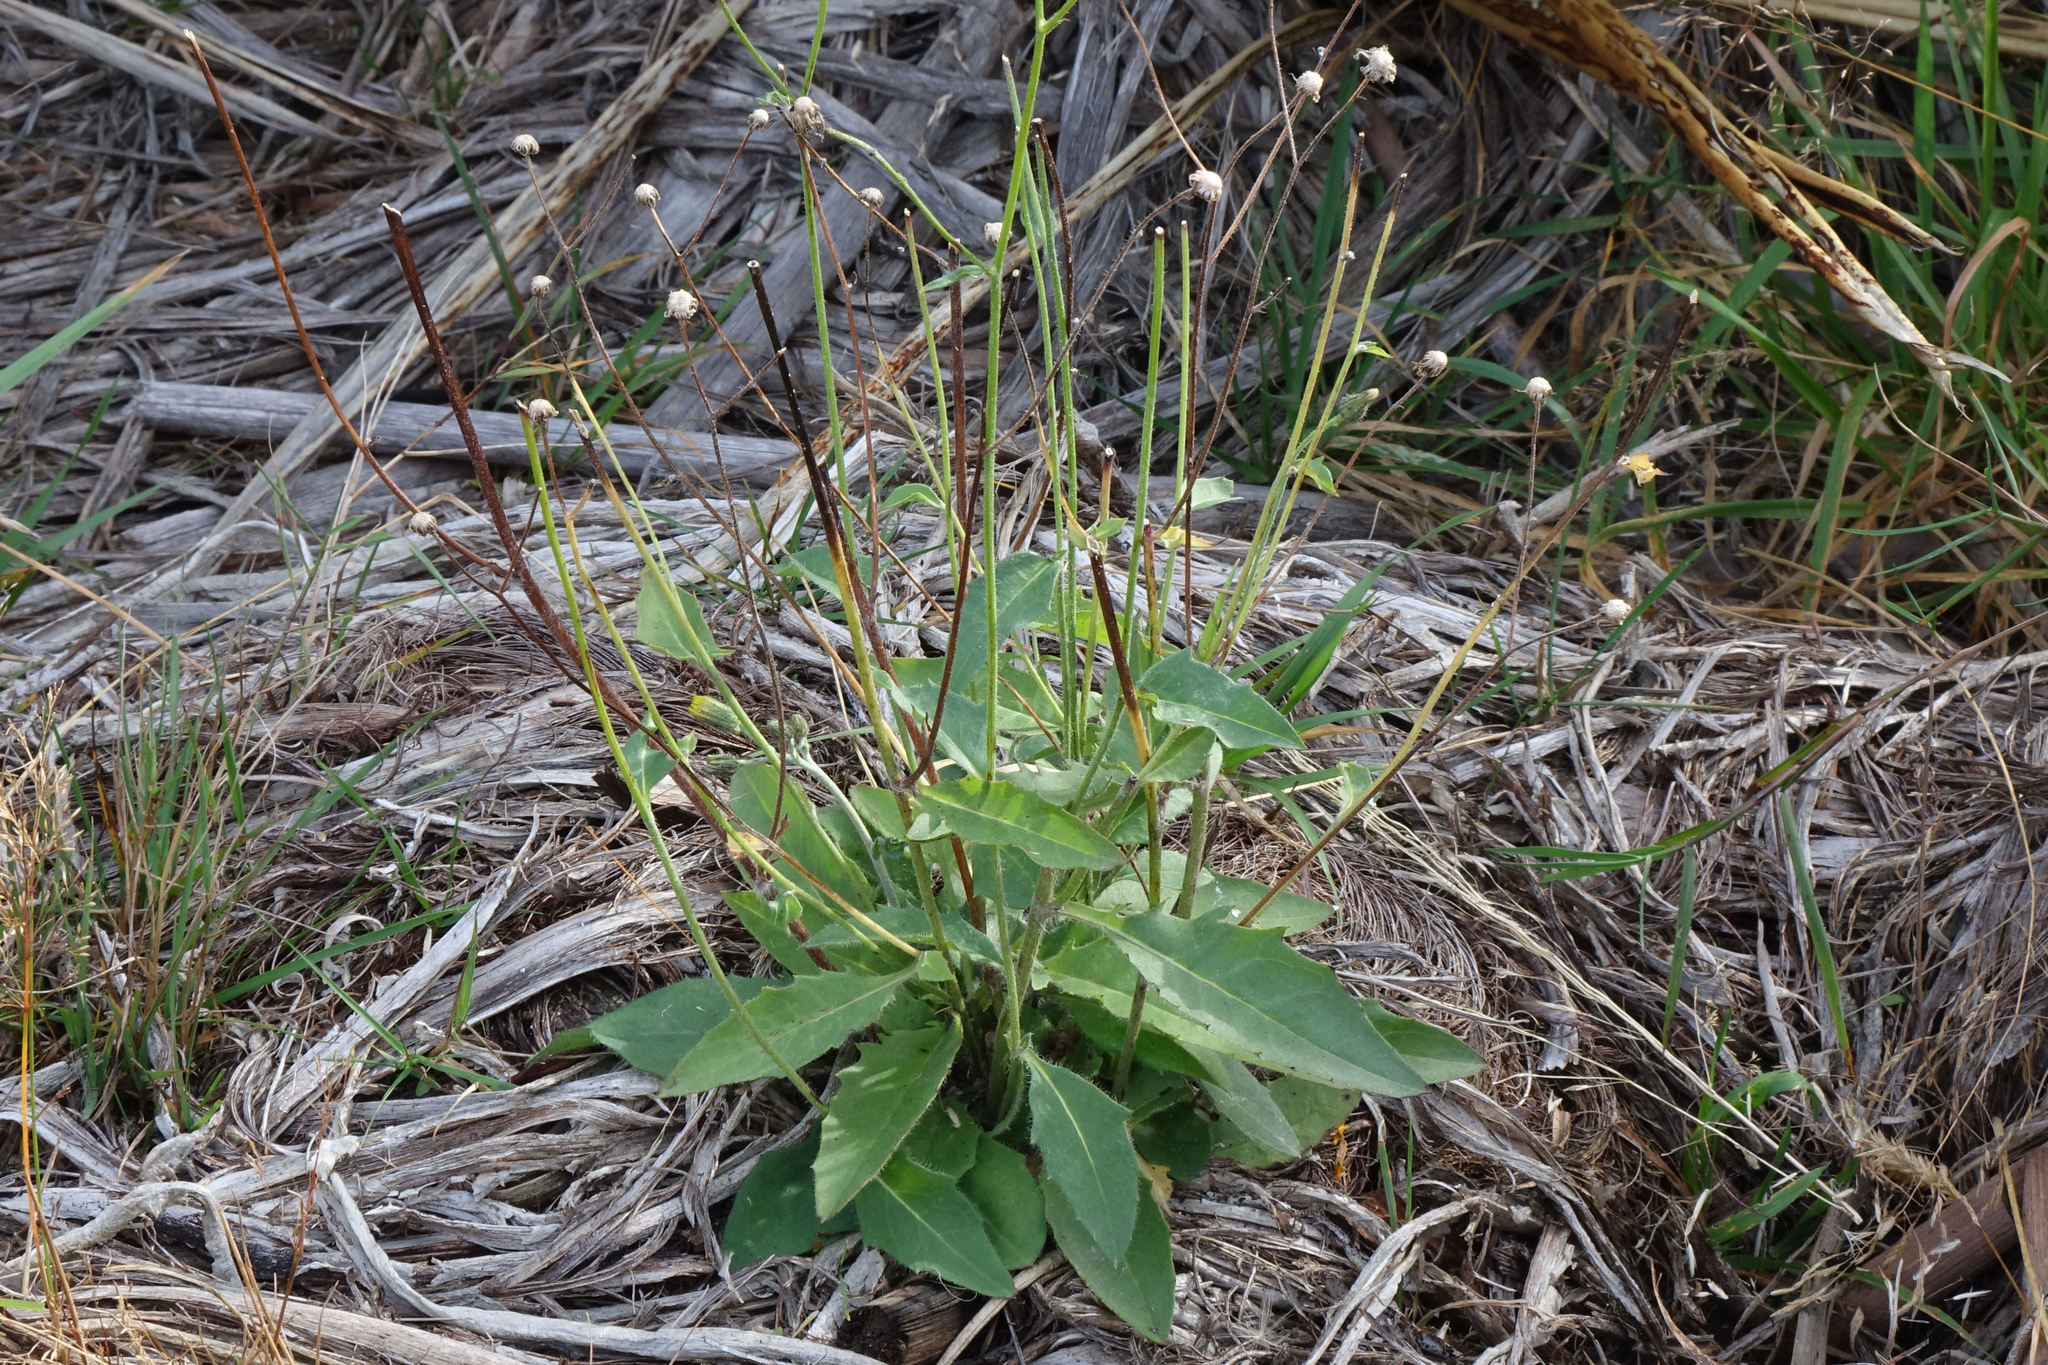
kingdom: Plantae
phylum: Tracheophyta
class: Magnoliopsida
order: Asterales
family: Asteraceae
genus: Hieracium
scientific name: Hieracium lepidulum
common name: Irregular-toothed hawkweed
